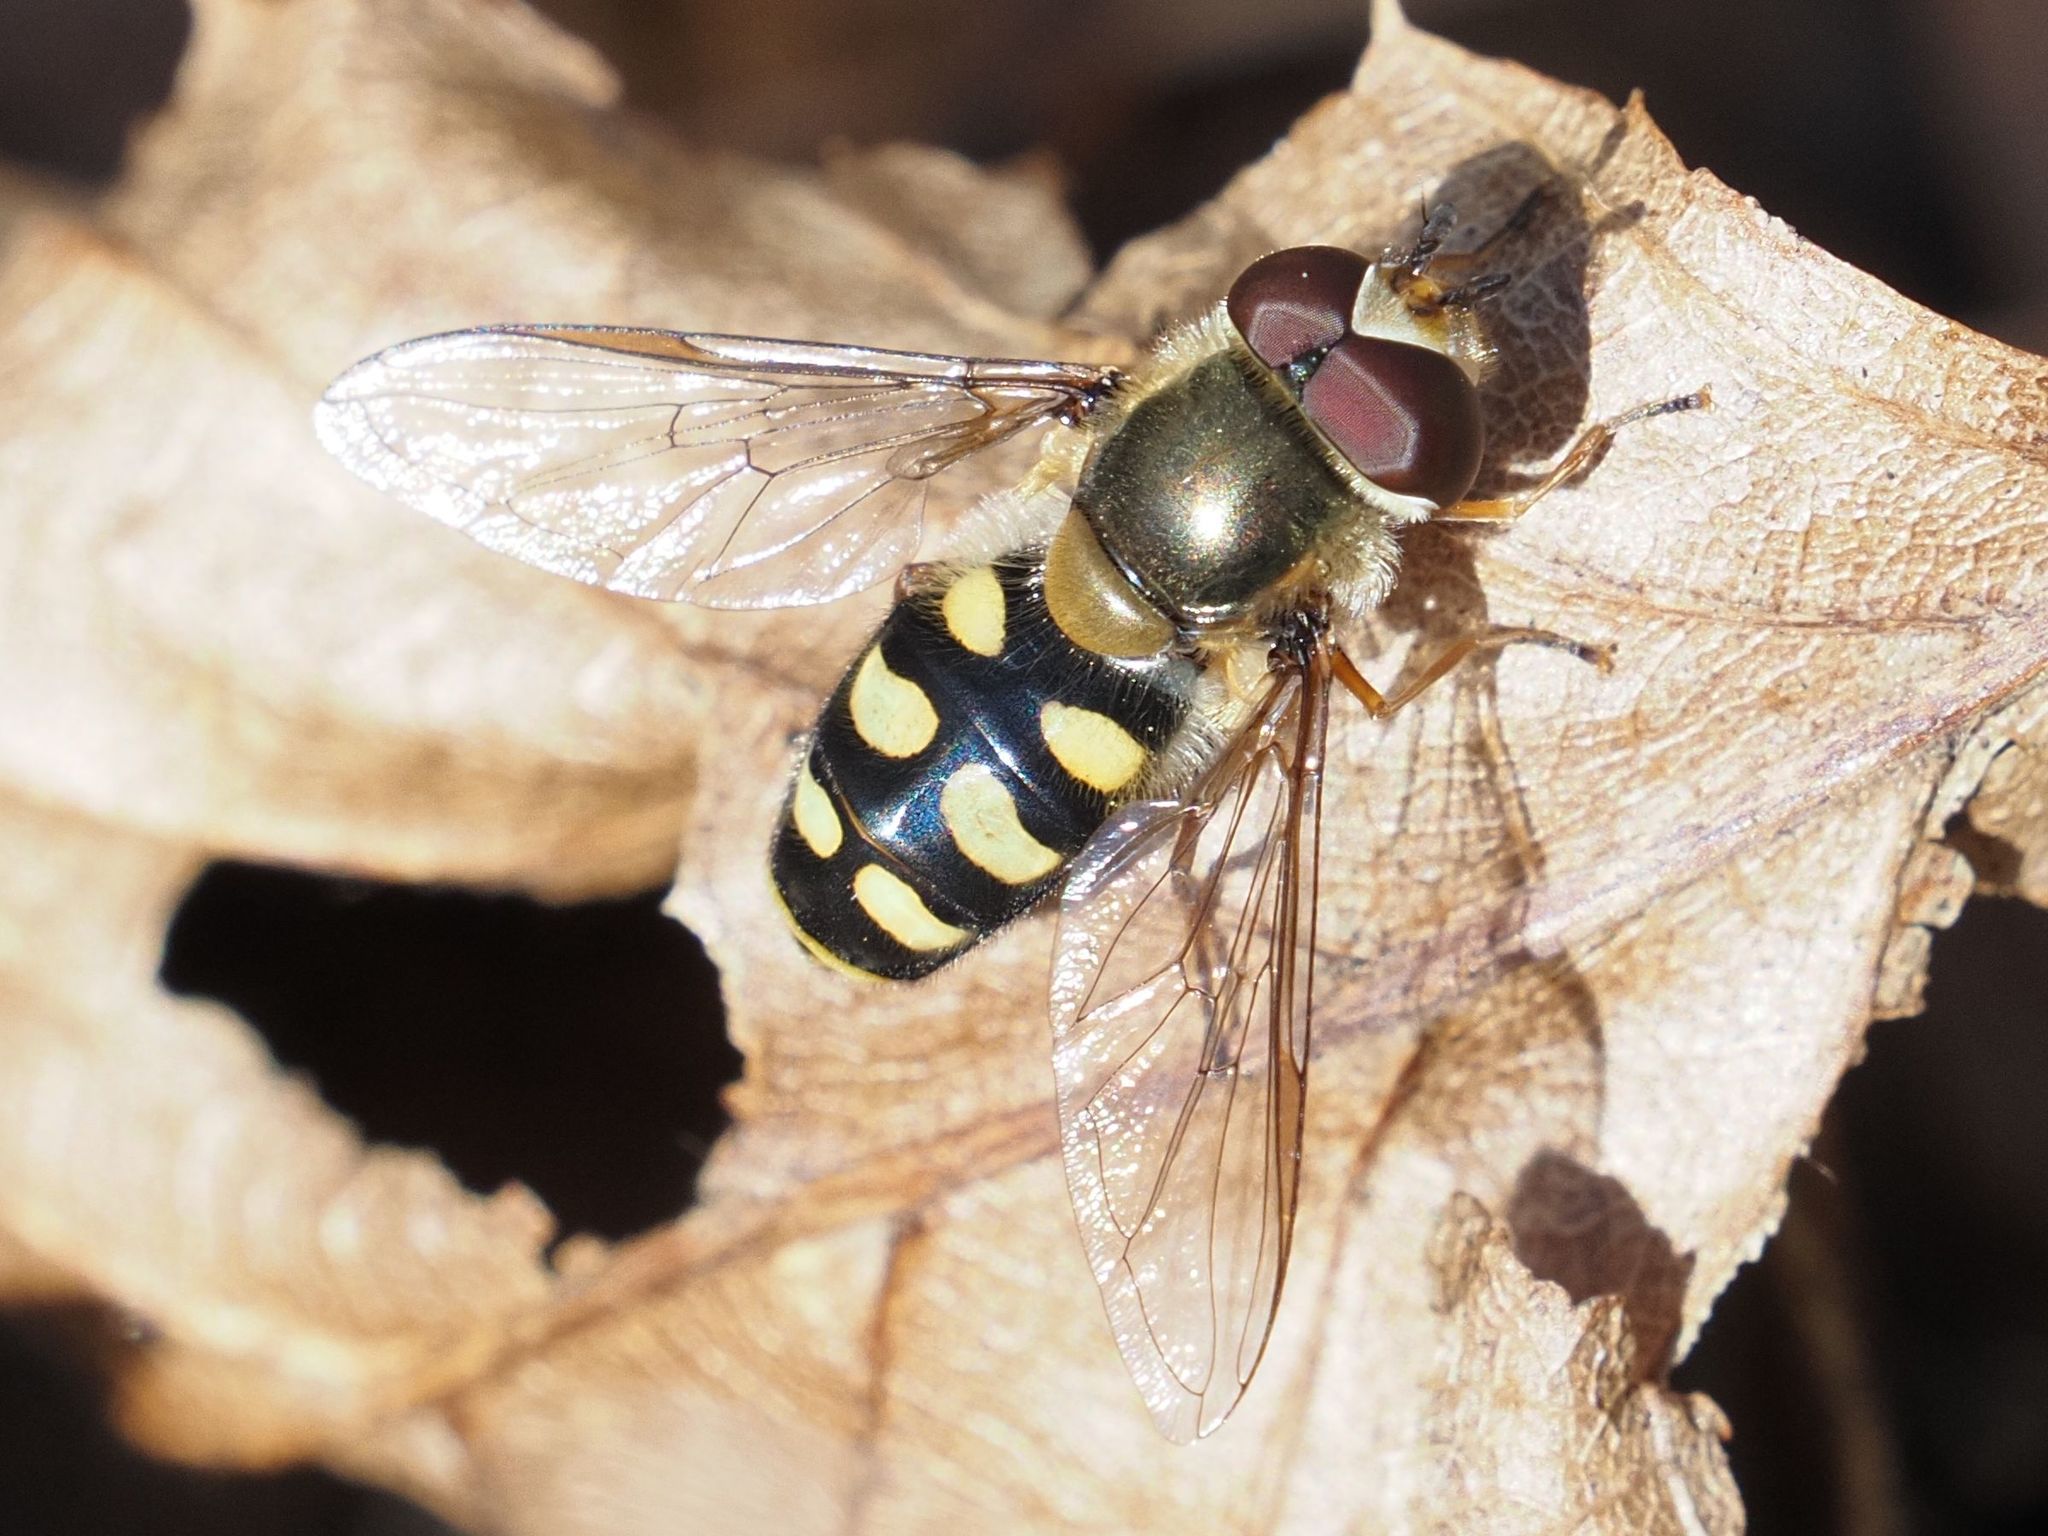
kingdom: Animalia
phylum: Arthropoda
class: Insecta
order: Diptera
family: Syrphidae
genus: Eupeodes
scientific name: Eupeodes luniger
